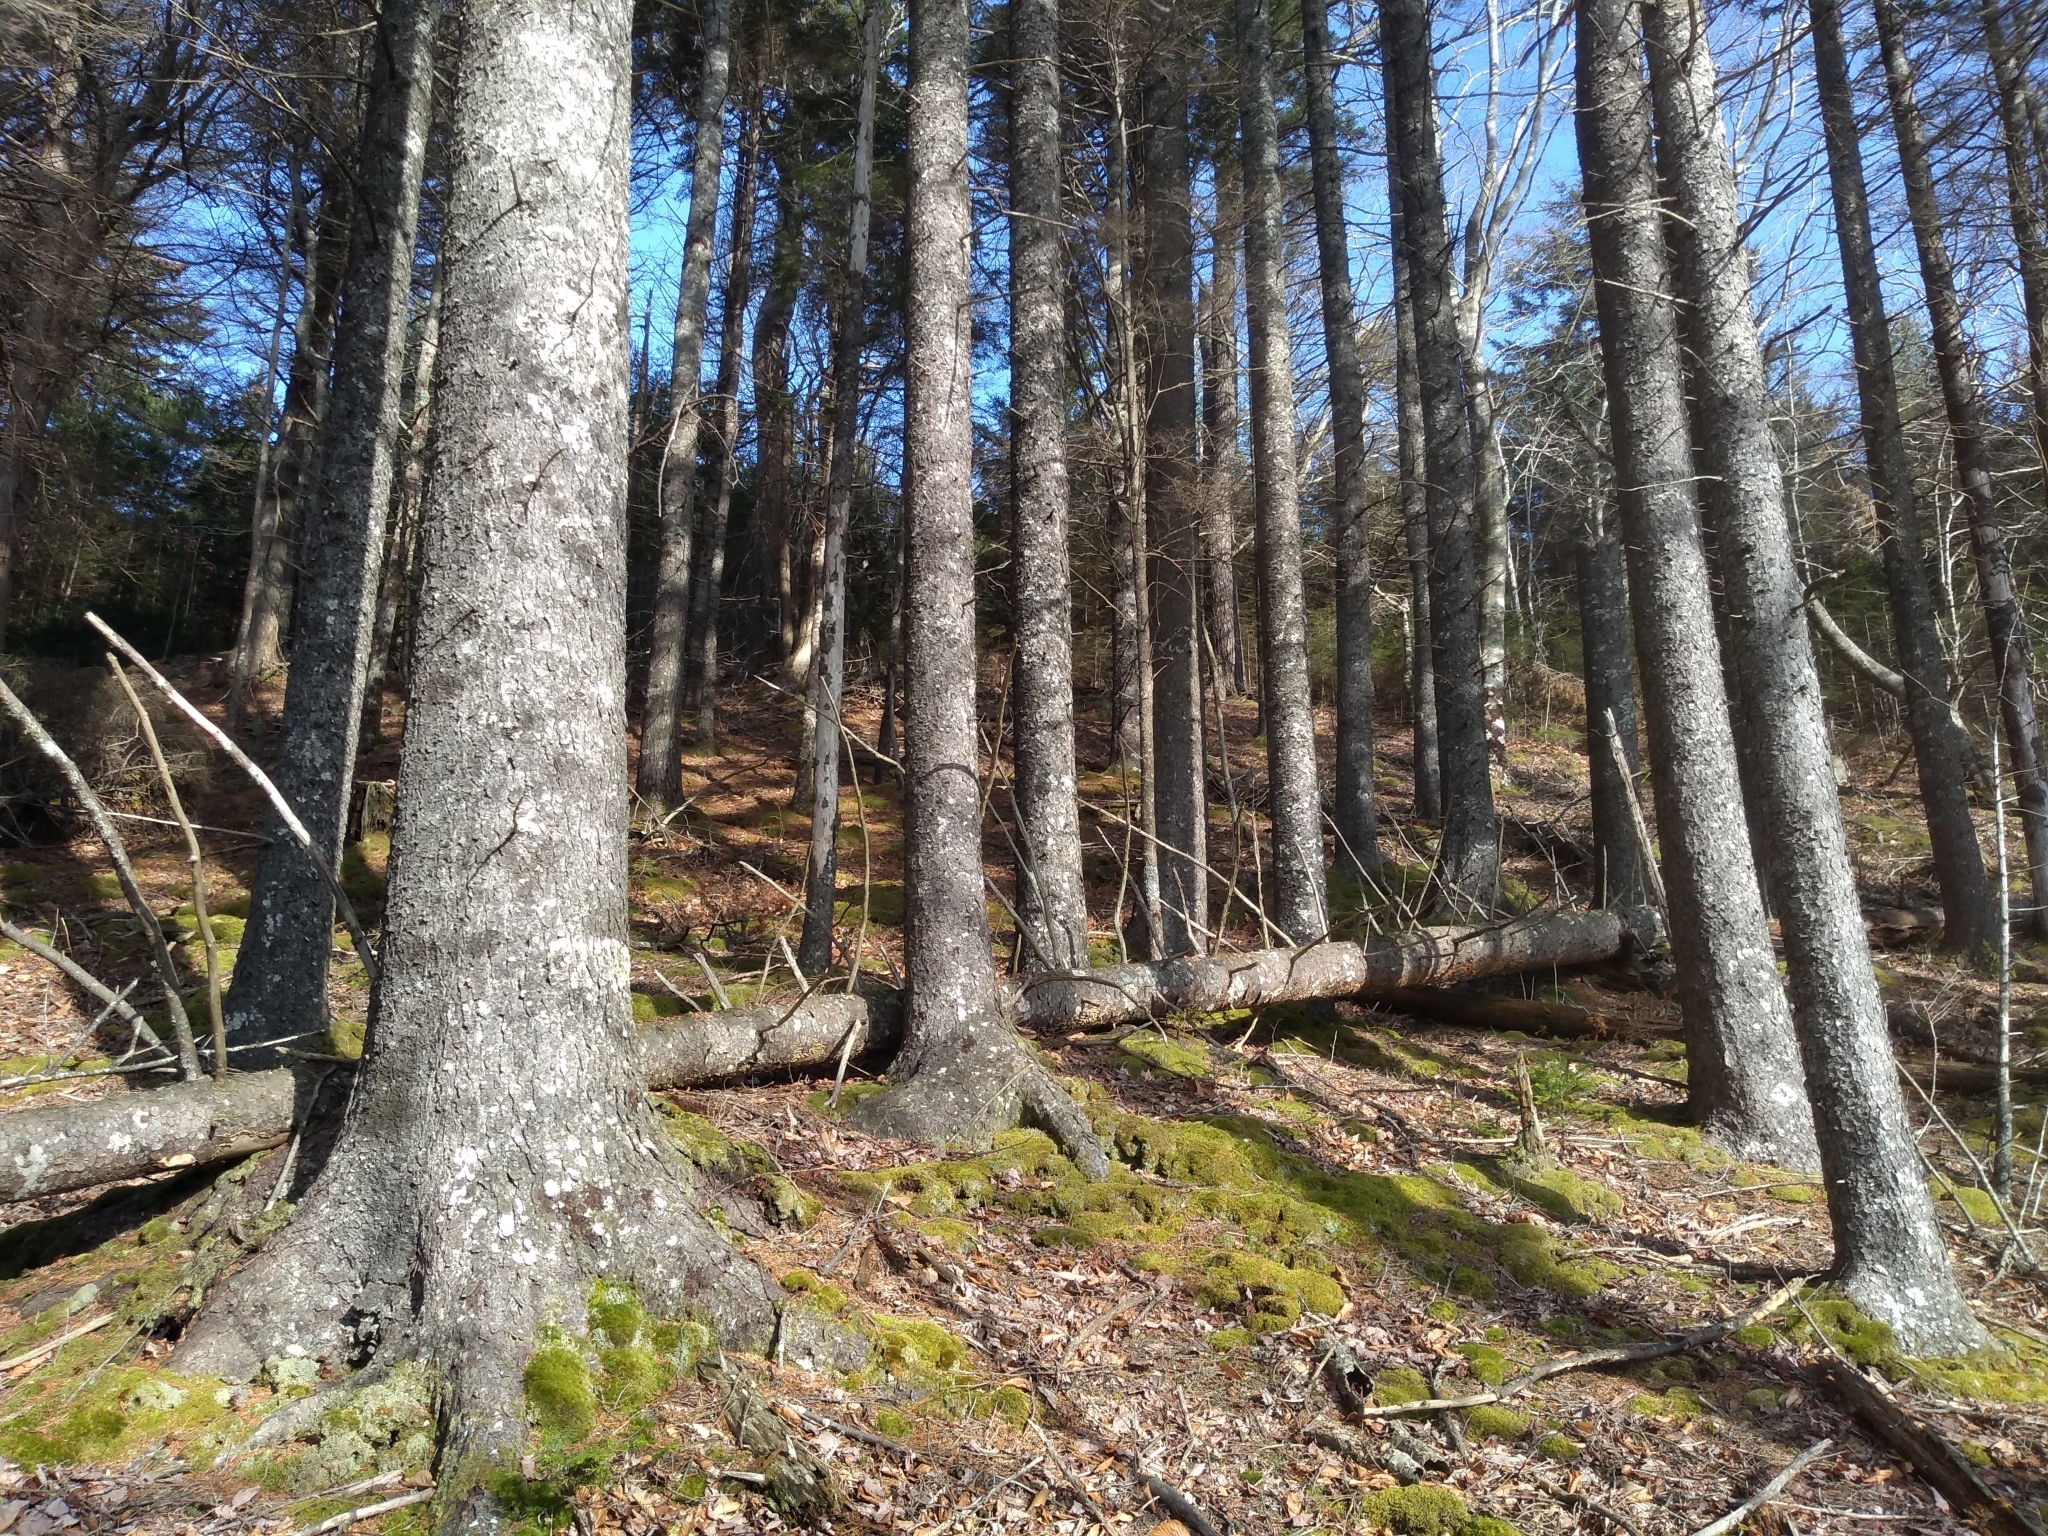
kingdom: Plantae
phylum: Tracheophyta
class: Pinopsida
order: Pinales
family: Pinaceae
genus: Picea
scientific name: Picea rubens
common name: Red spruce
